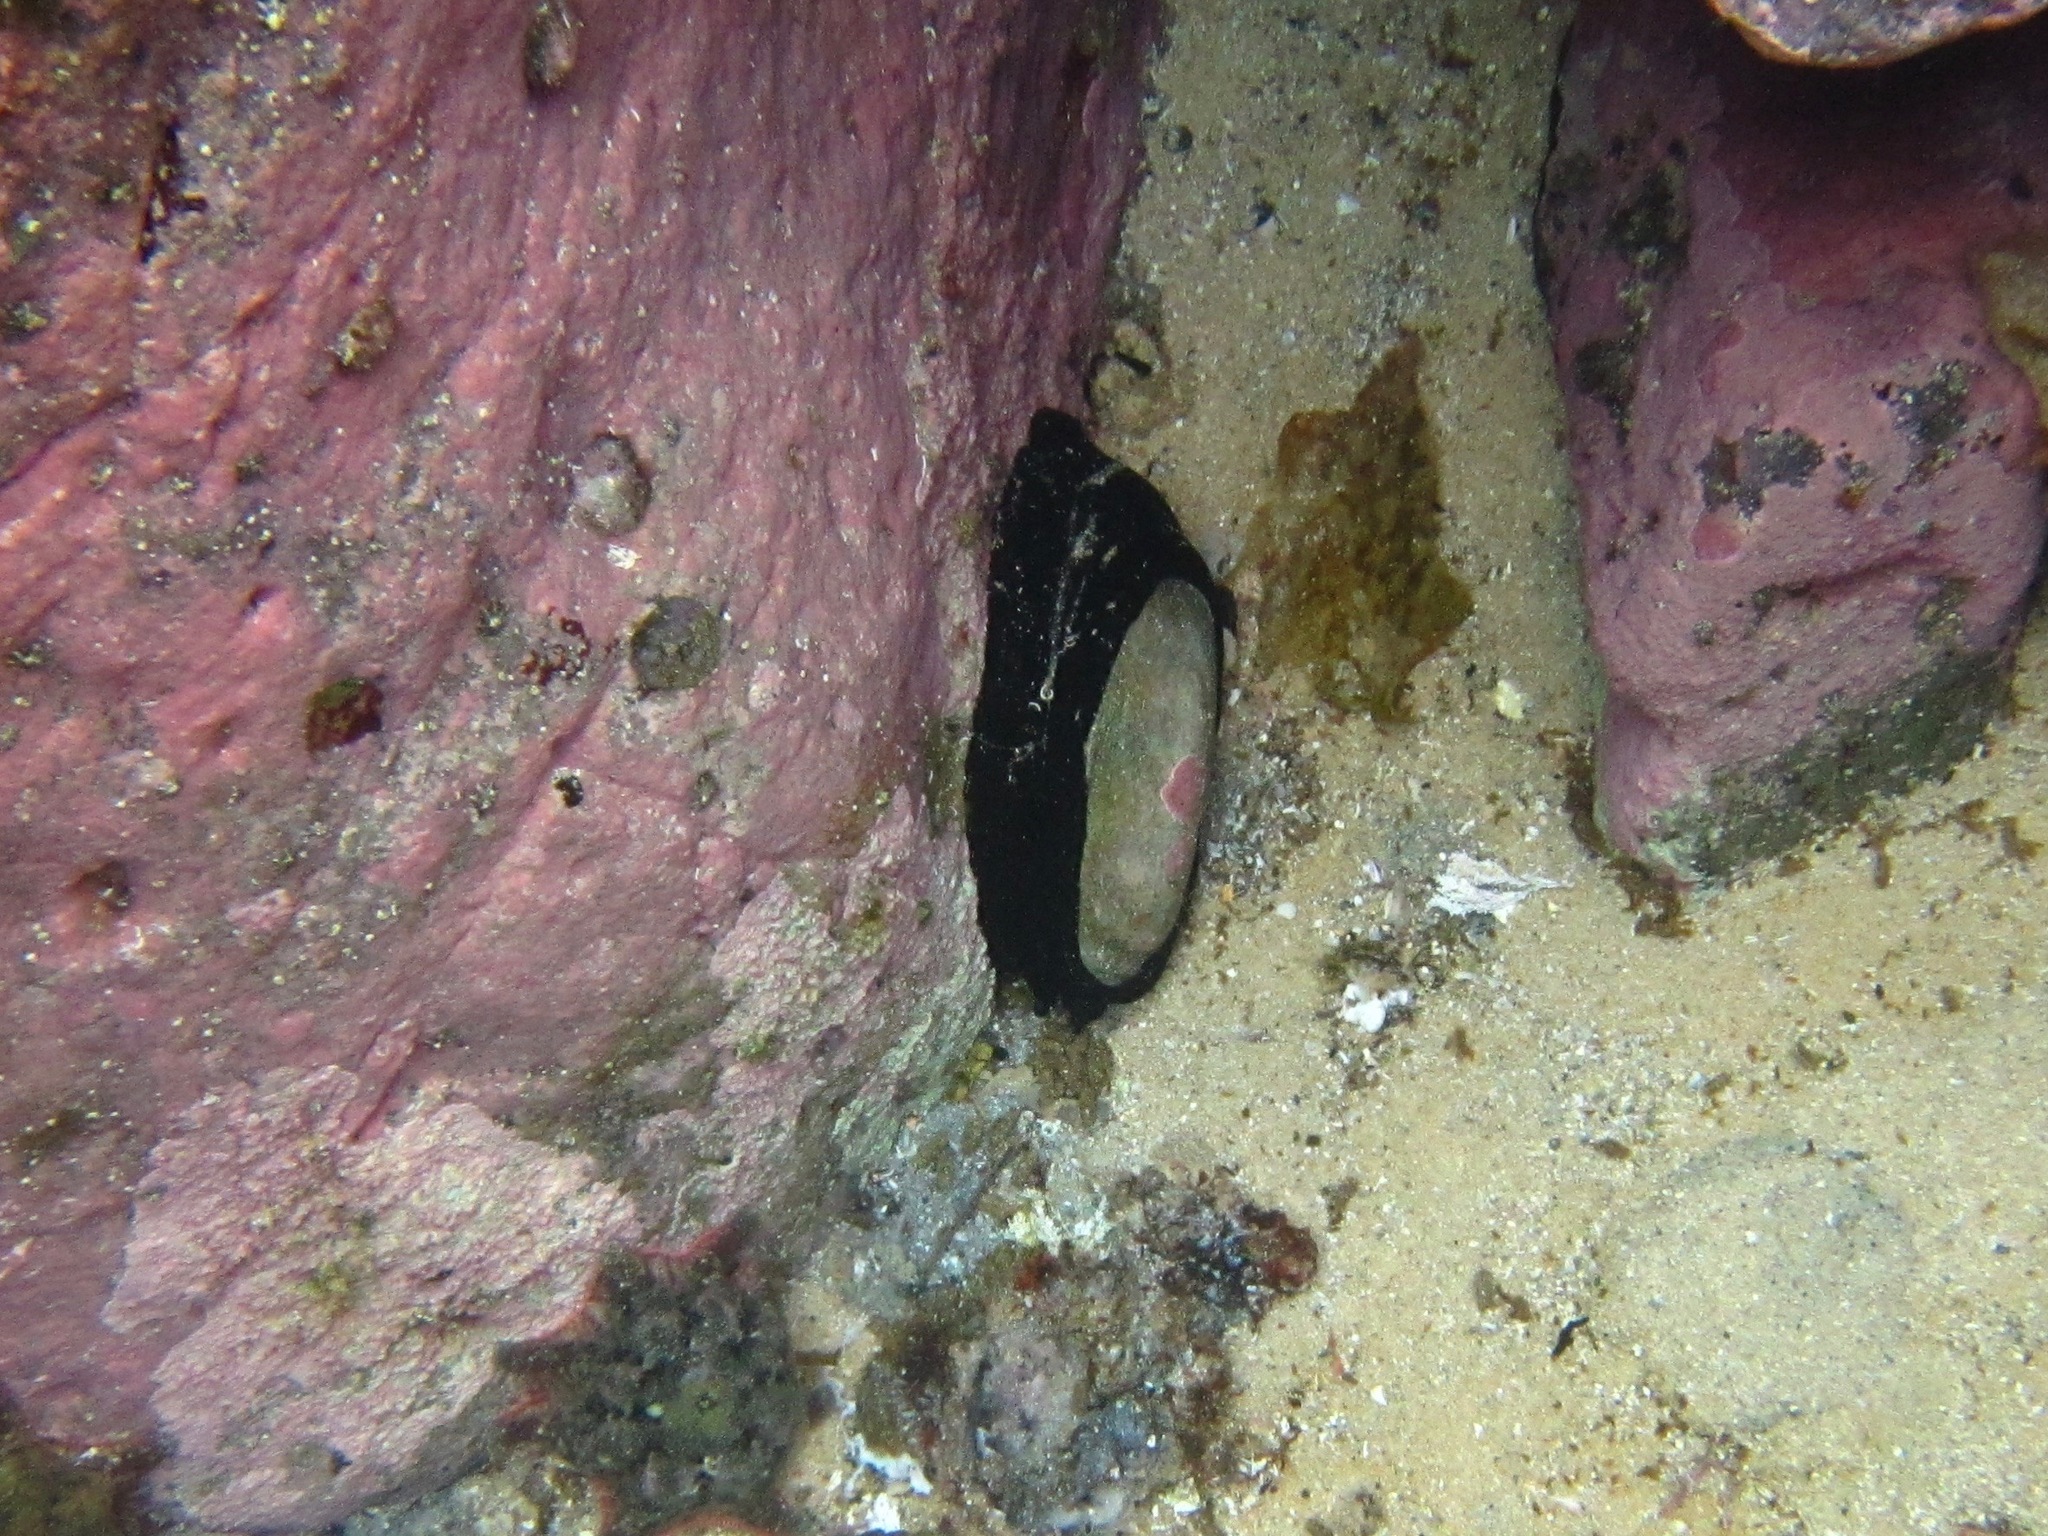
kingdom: Animalia
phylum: Mollusca
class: Gastropoda
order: Lepetellida
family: Fissurellidae
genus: Scutus
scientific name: Scutus antipodes
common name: Duckbill shell
